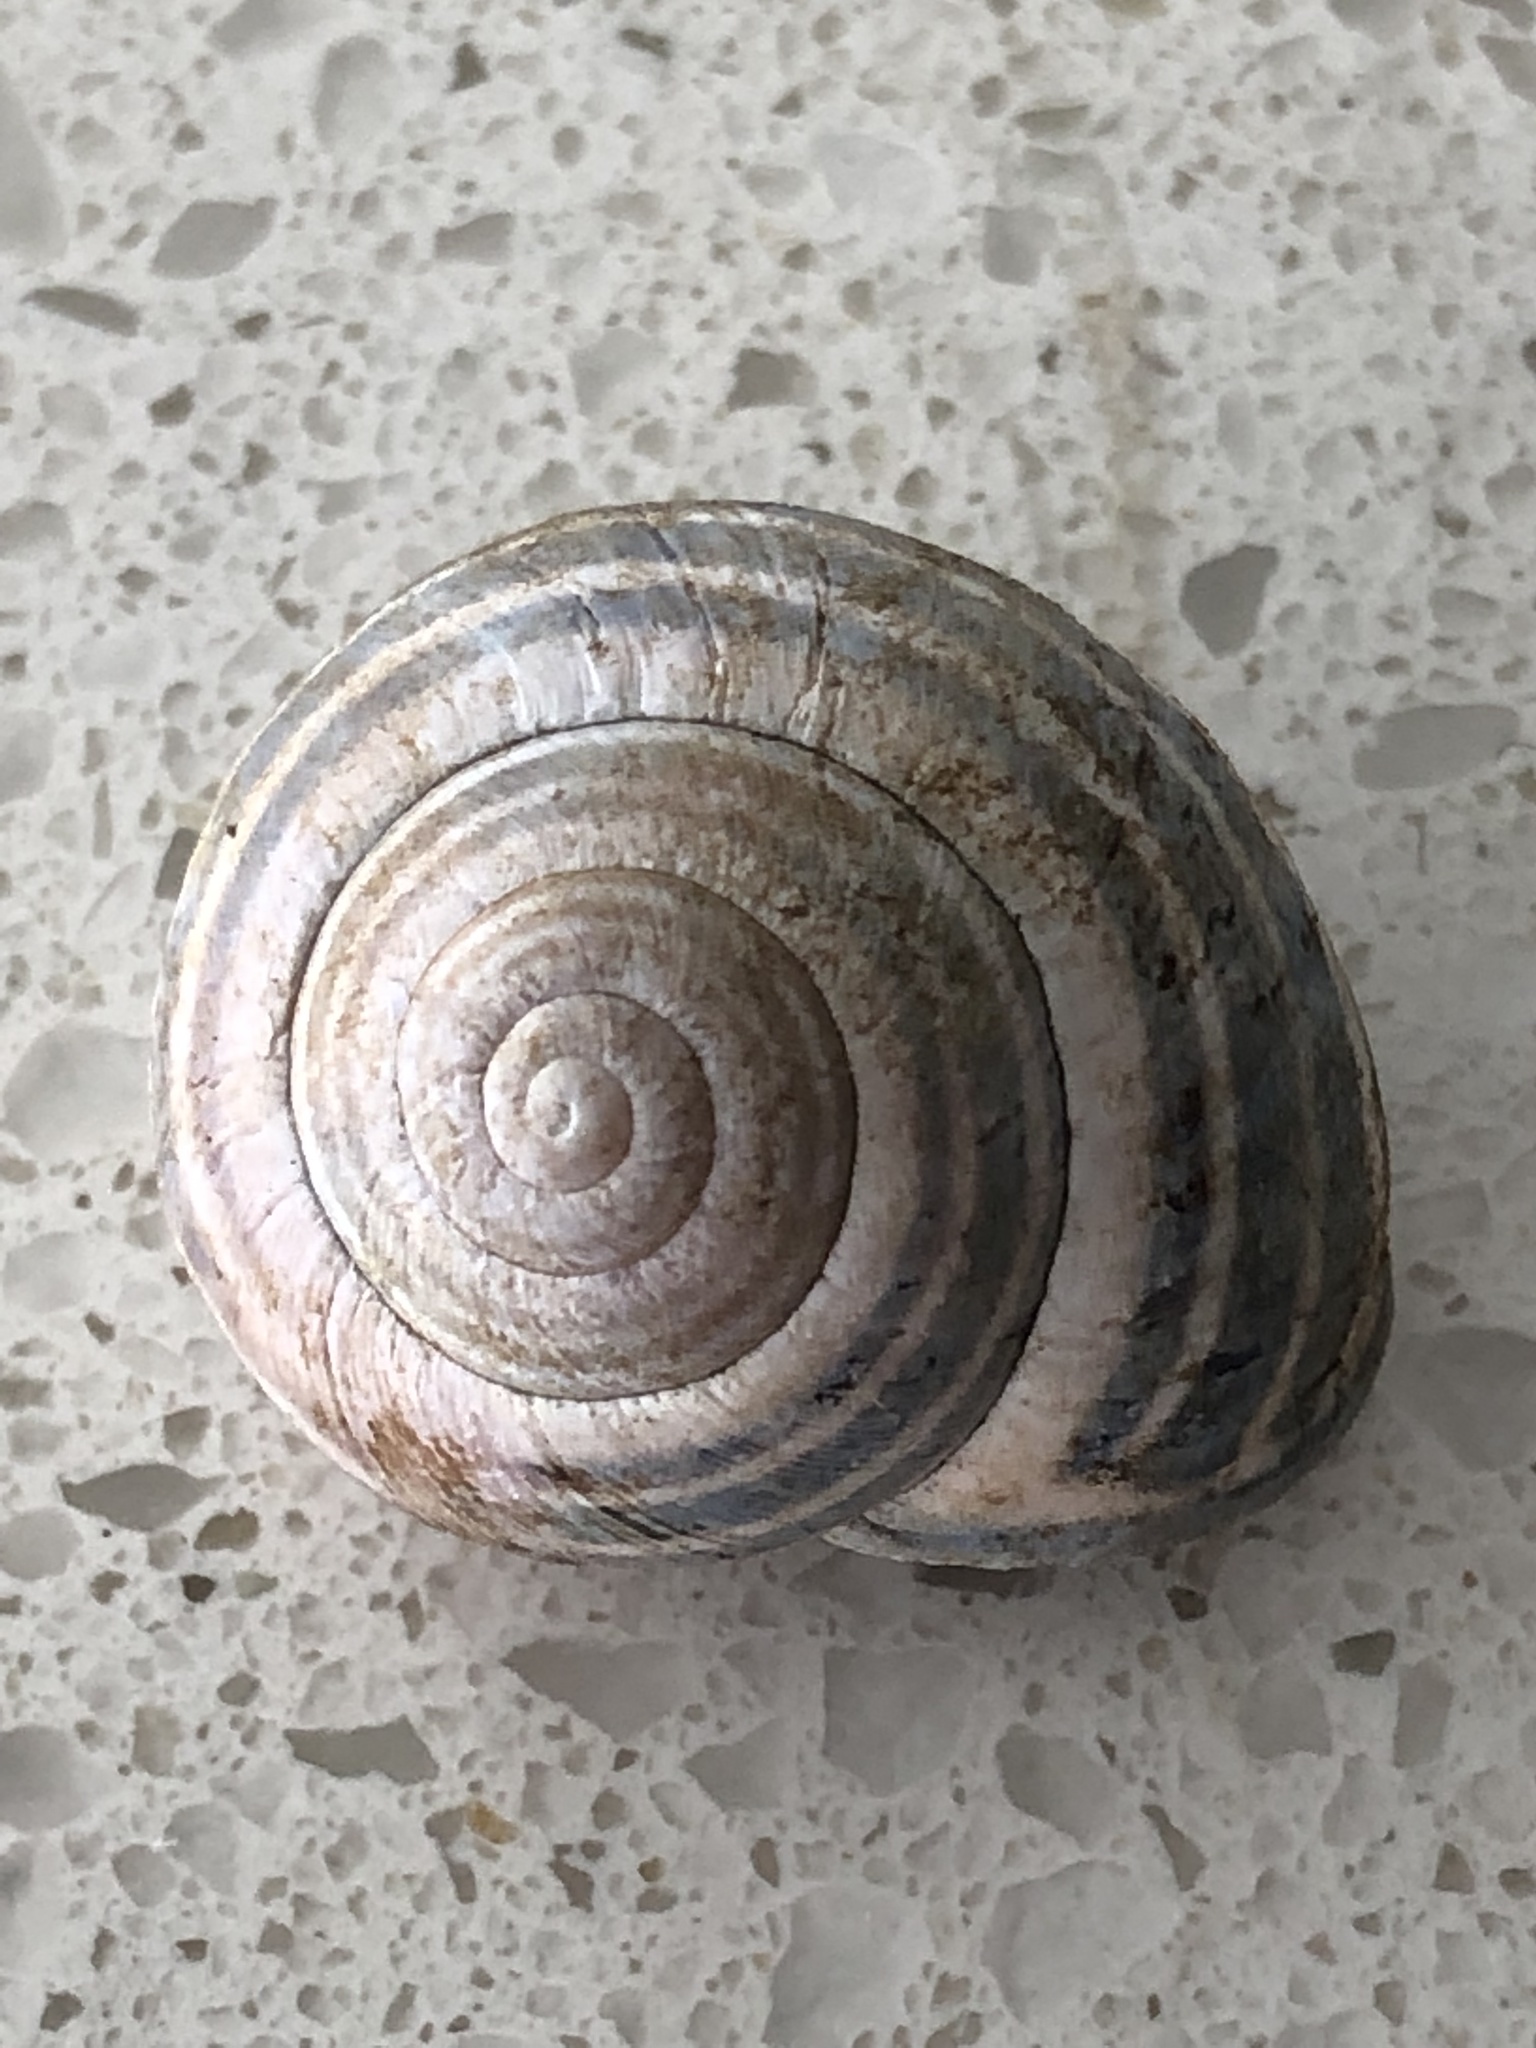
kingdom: Animalia
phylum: Mollusca
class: Gastropoda
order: Stylommatophora
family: Helicidae
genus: Cepaea
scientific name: Cepaea nemoralis
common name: Grovesnail
